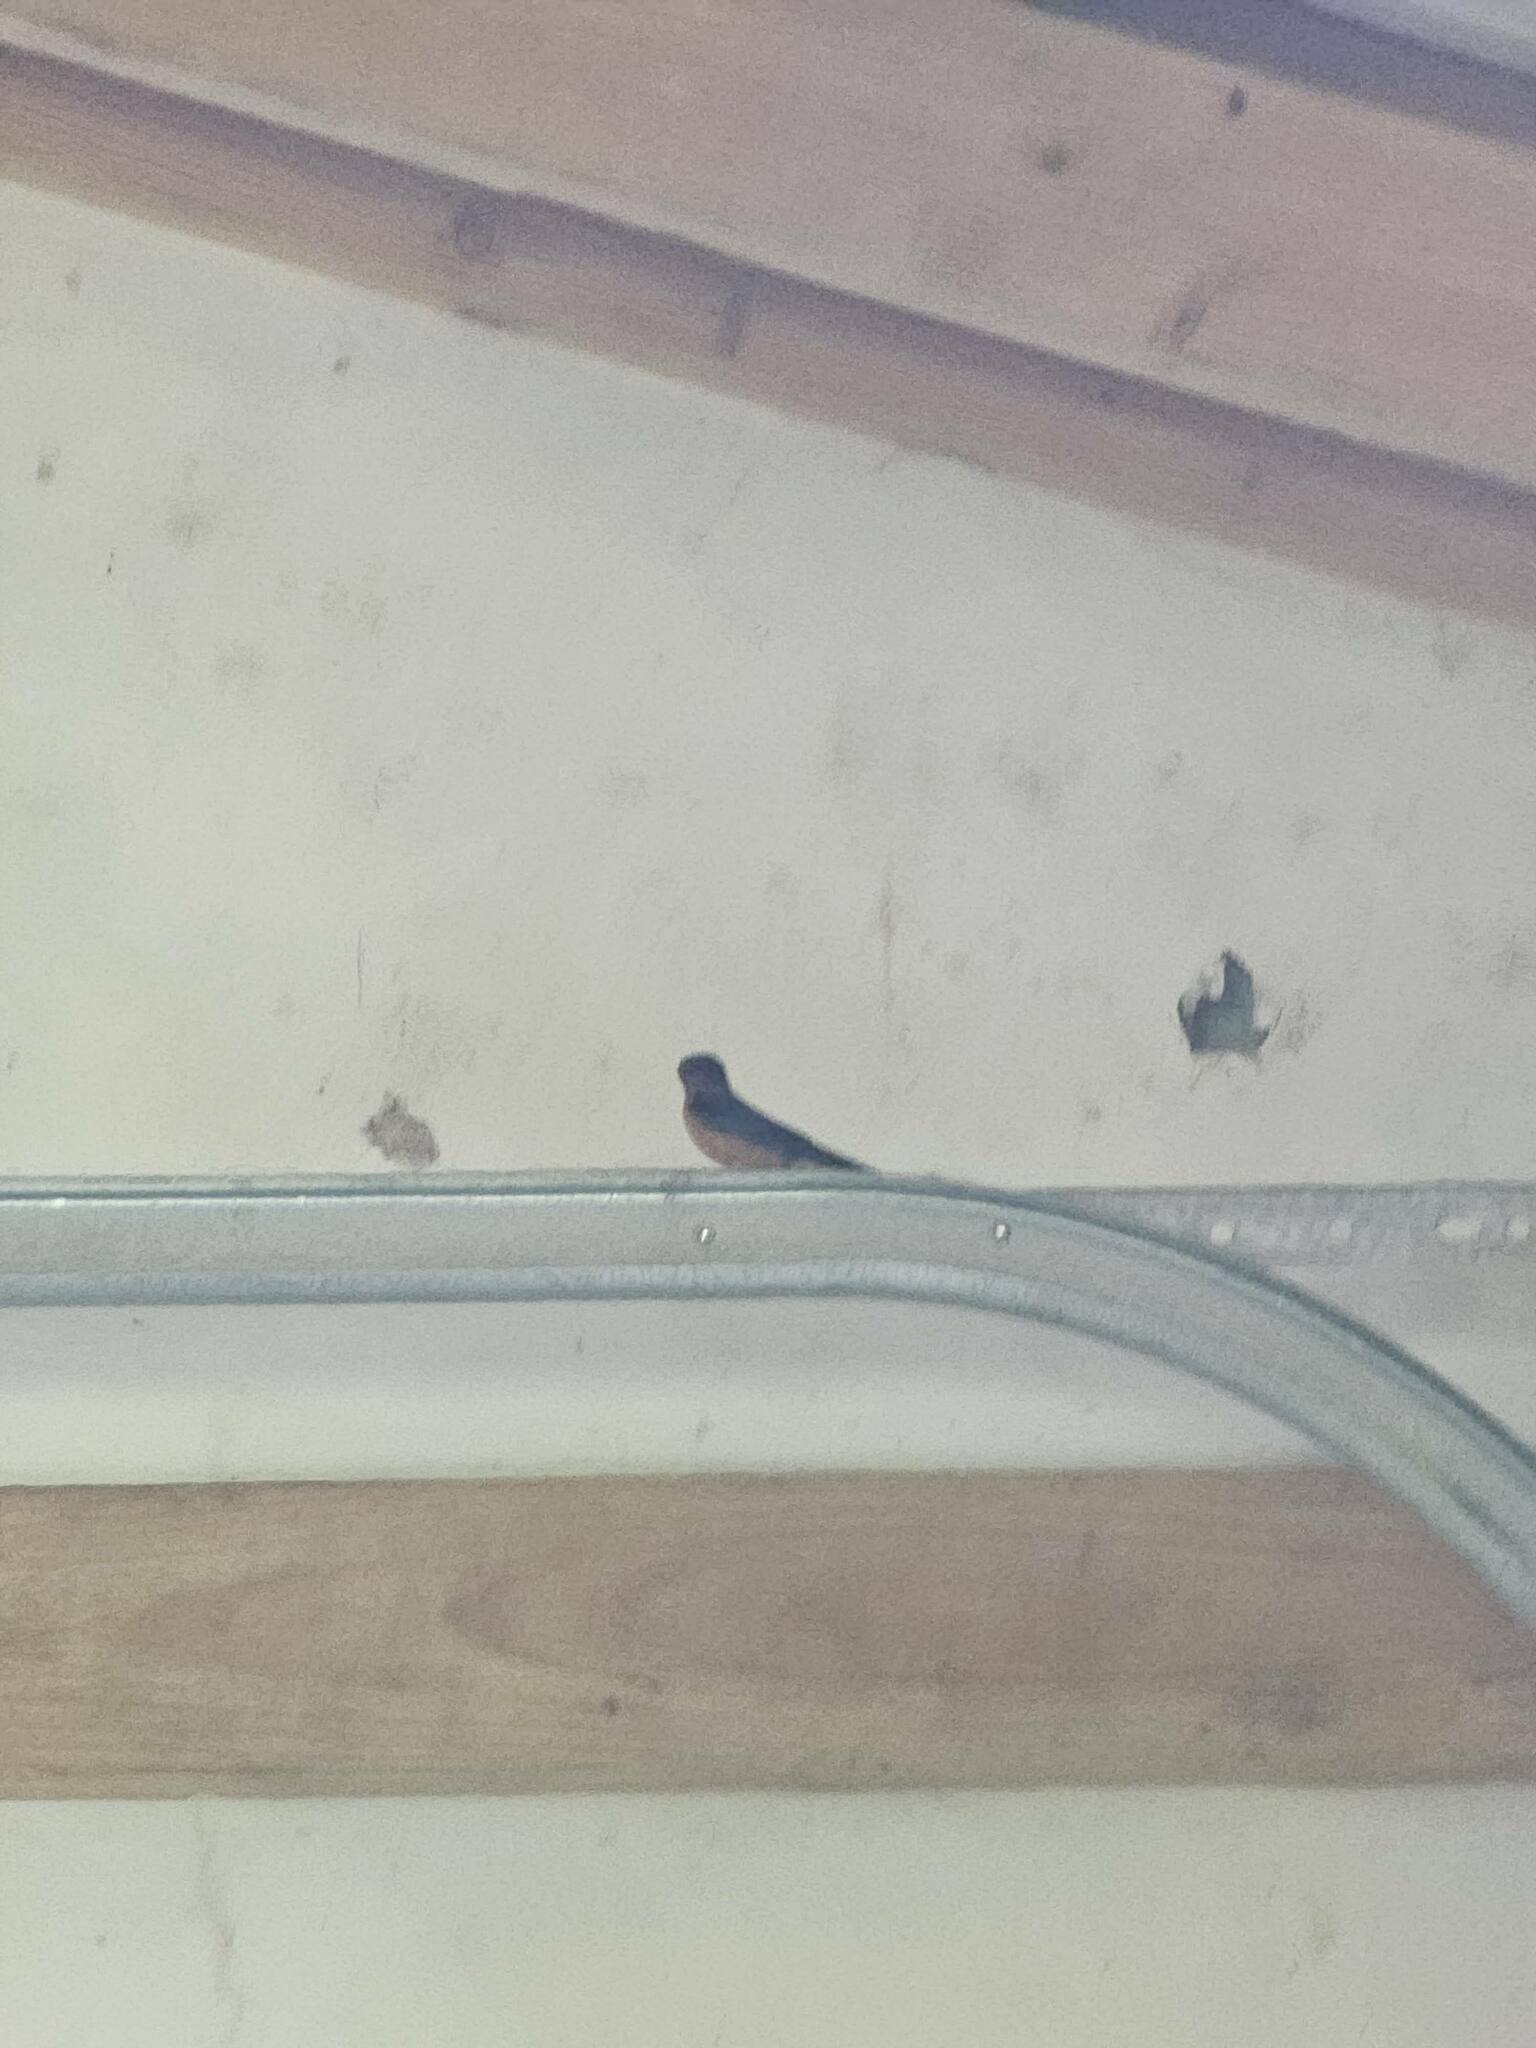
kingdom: Animalia
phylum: Chordata
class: Aves
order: Passeriformes
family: Hirundinidae
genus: Hirundo
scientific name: Hirundo rustica
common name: Barn swallow
